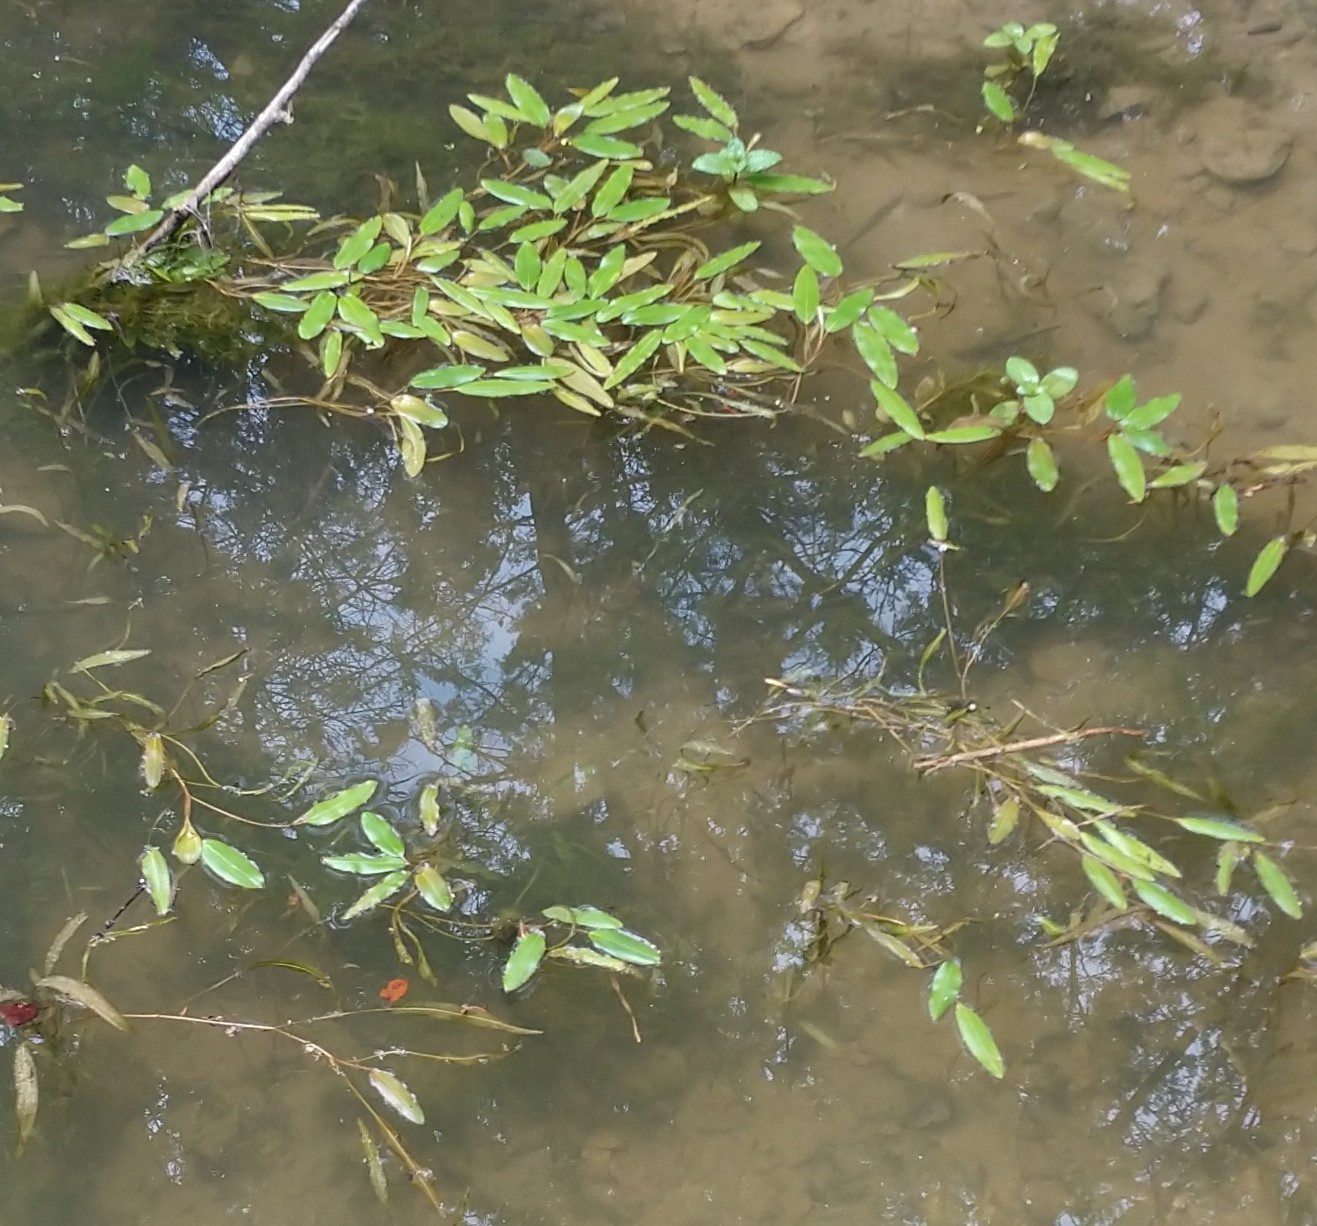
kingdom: Plantae
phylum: Tracheophyta
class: Liliopsida
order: Alismatales
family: Potamogetonaceae
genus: Potamogeton
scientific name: Potamogeton nodosus
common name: Loddon pondweed
